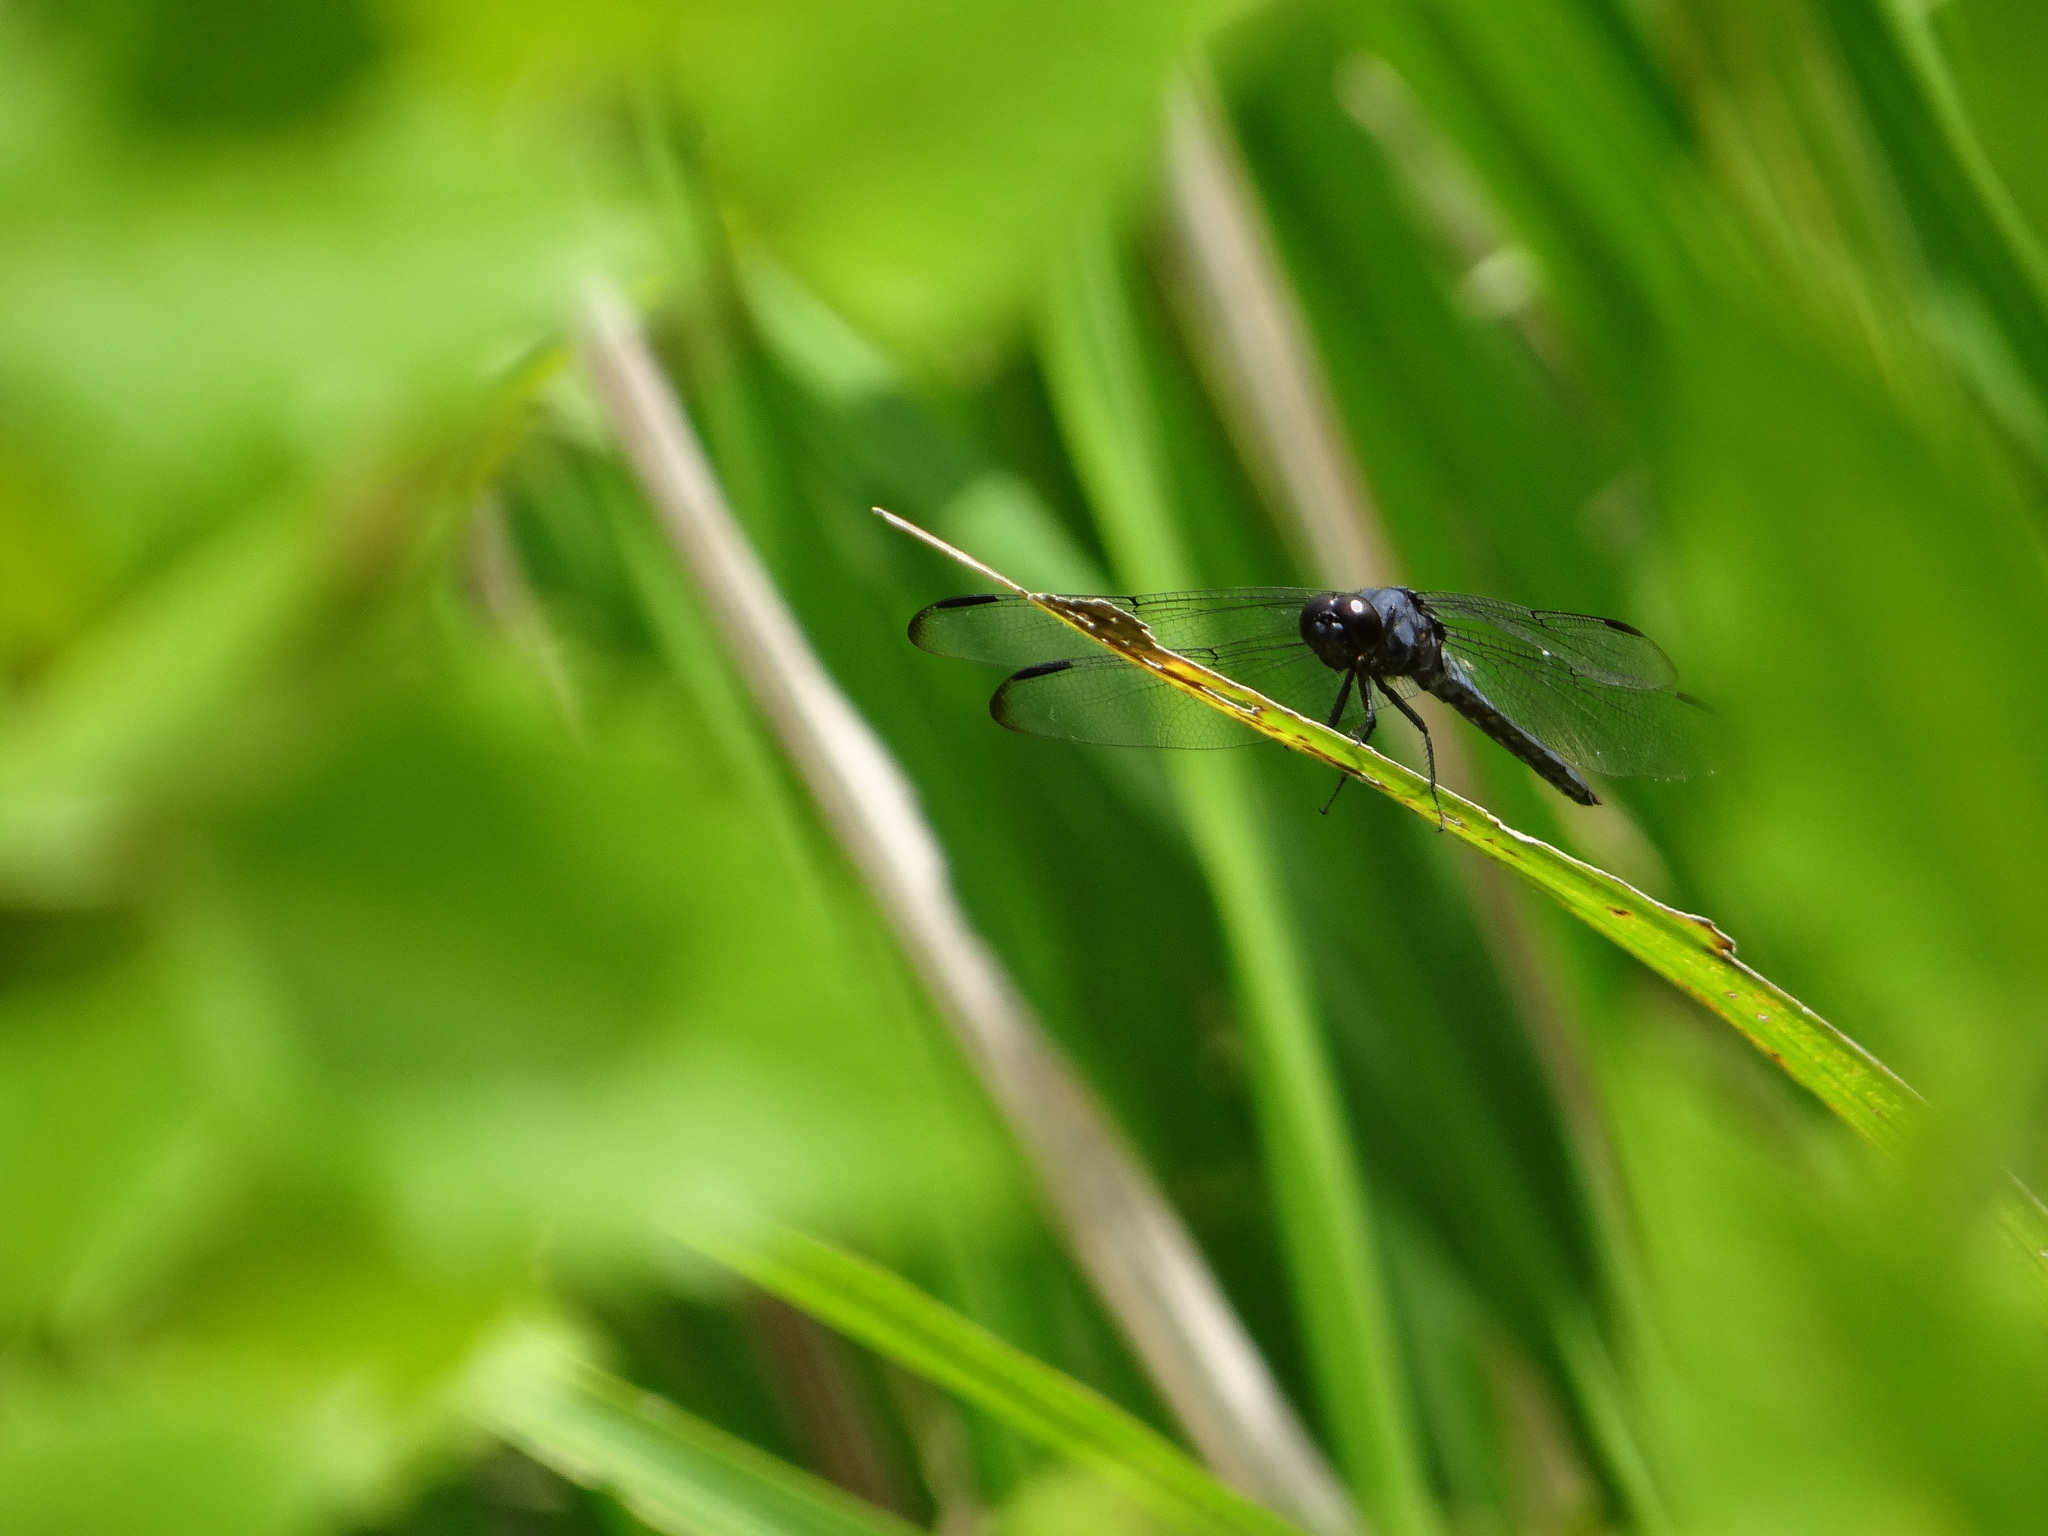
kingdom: Animalia
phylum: Arthropoda
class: Insecta
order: Odonata
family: Libellulidae
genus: Libellula
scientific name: Libellula incesta
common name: Slaty skimmer
